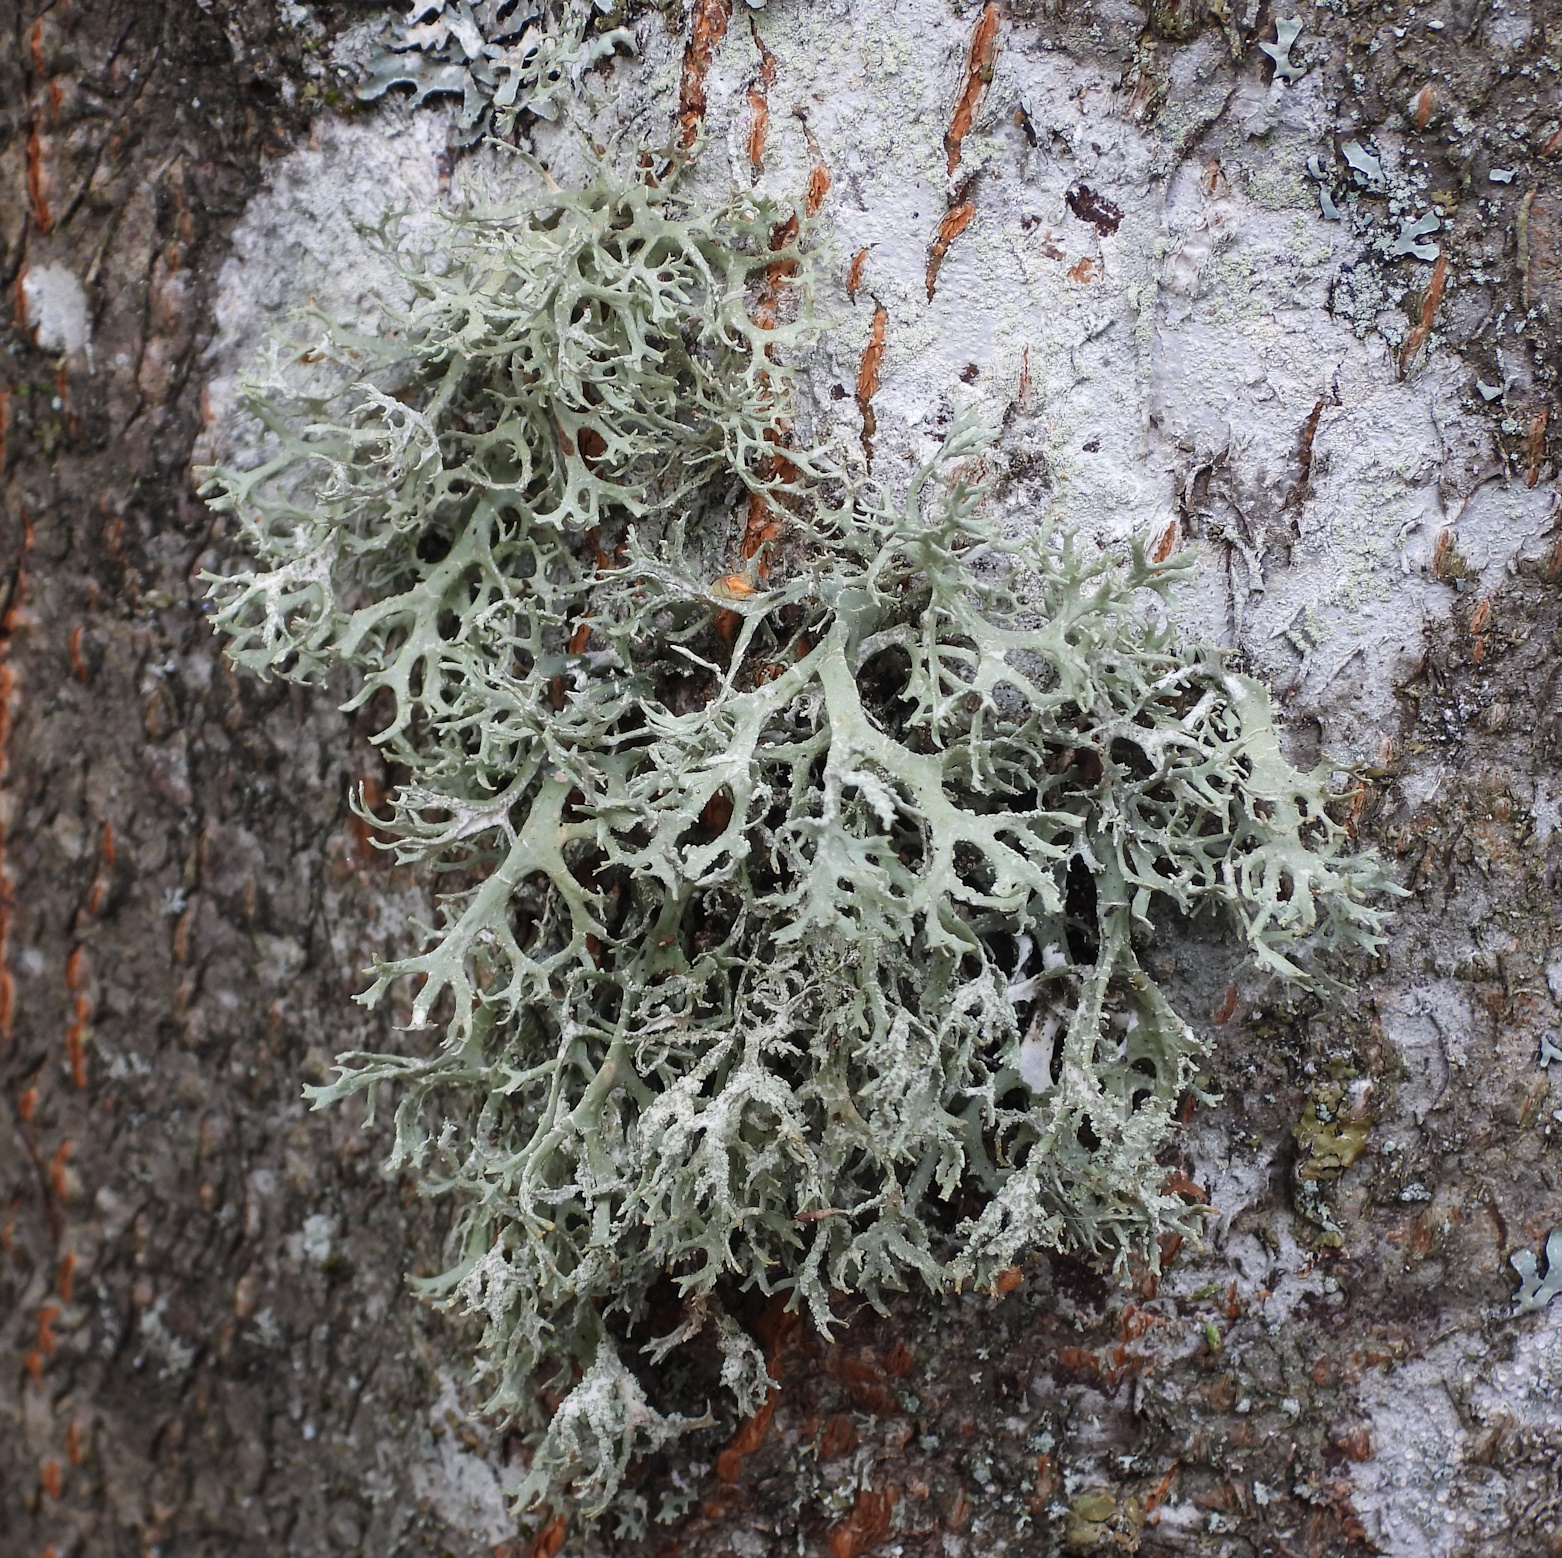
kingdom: Fungi
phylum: Ascomycota
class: Lecanoromycetes
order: Lecanorales
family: Parmeliaceae
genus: Evernia
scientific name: Evernia prunastri
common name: Oak moss
